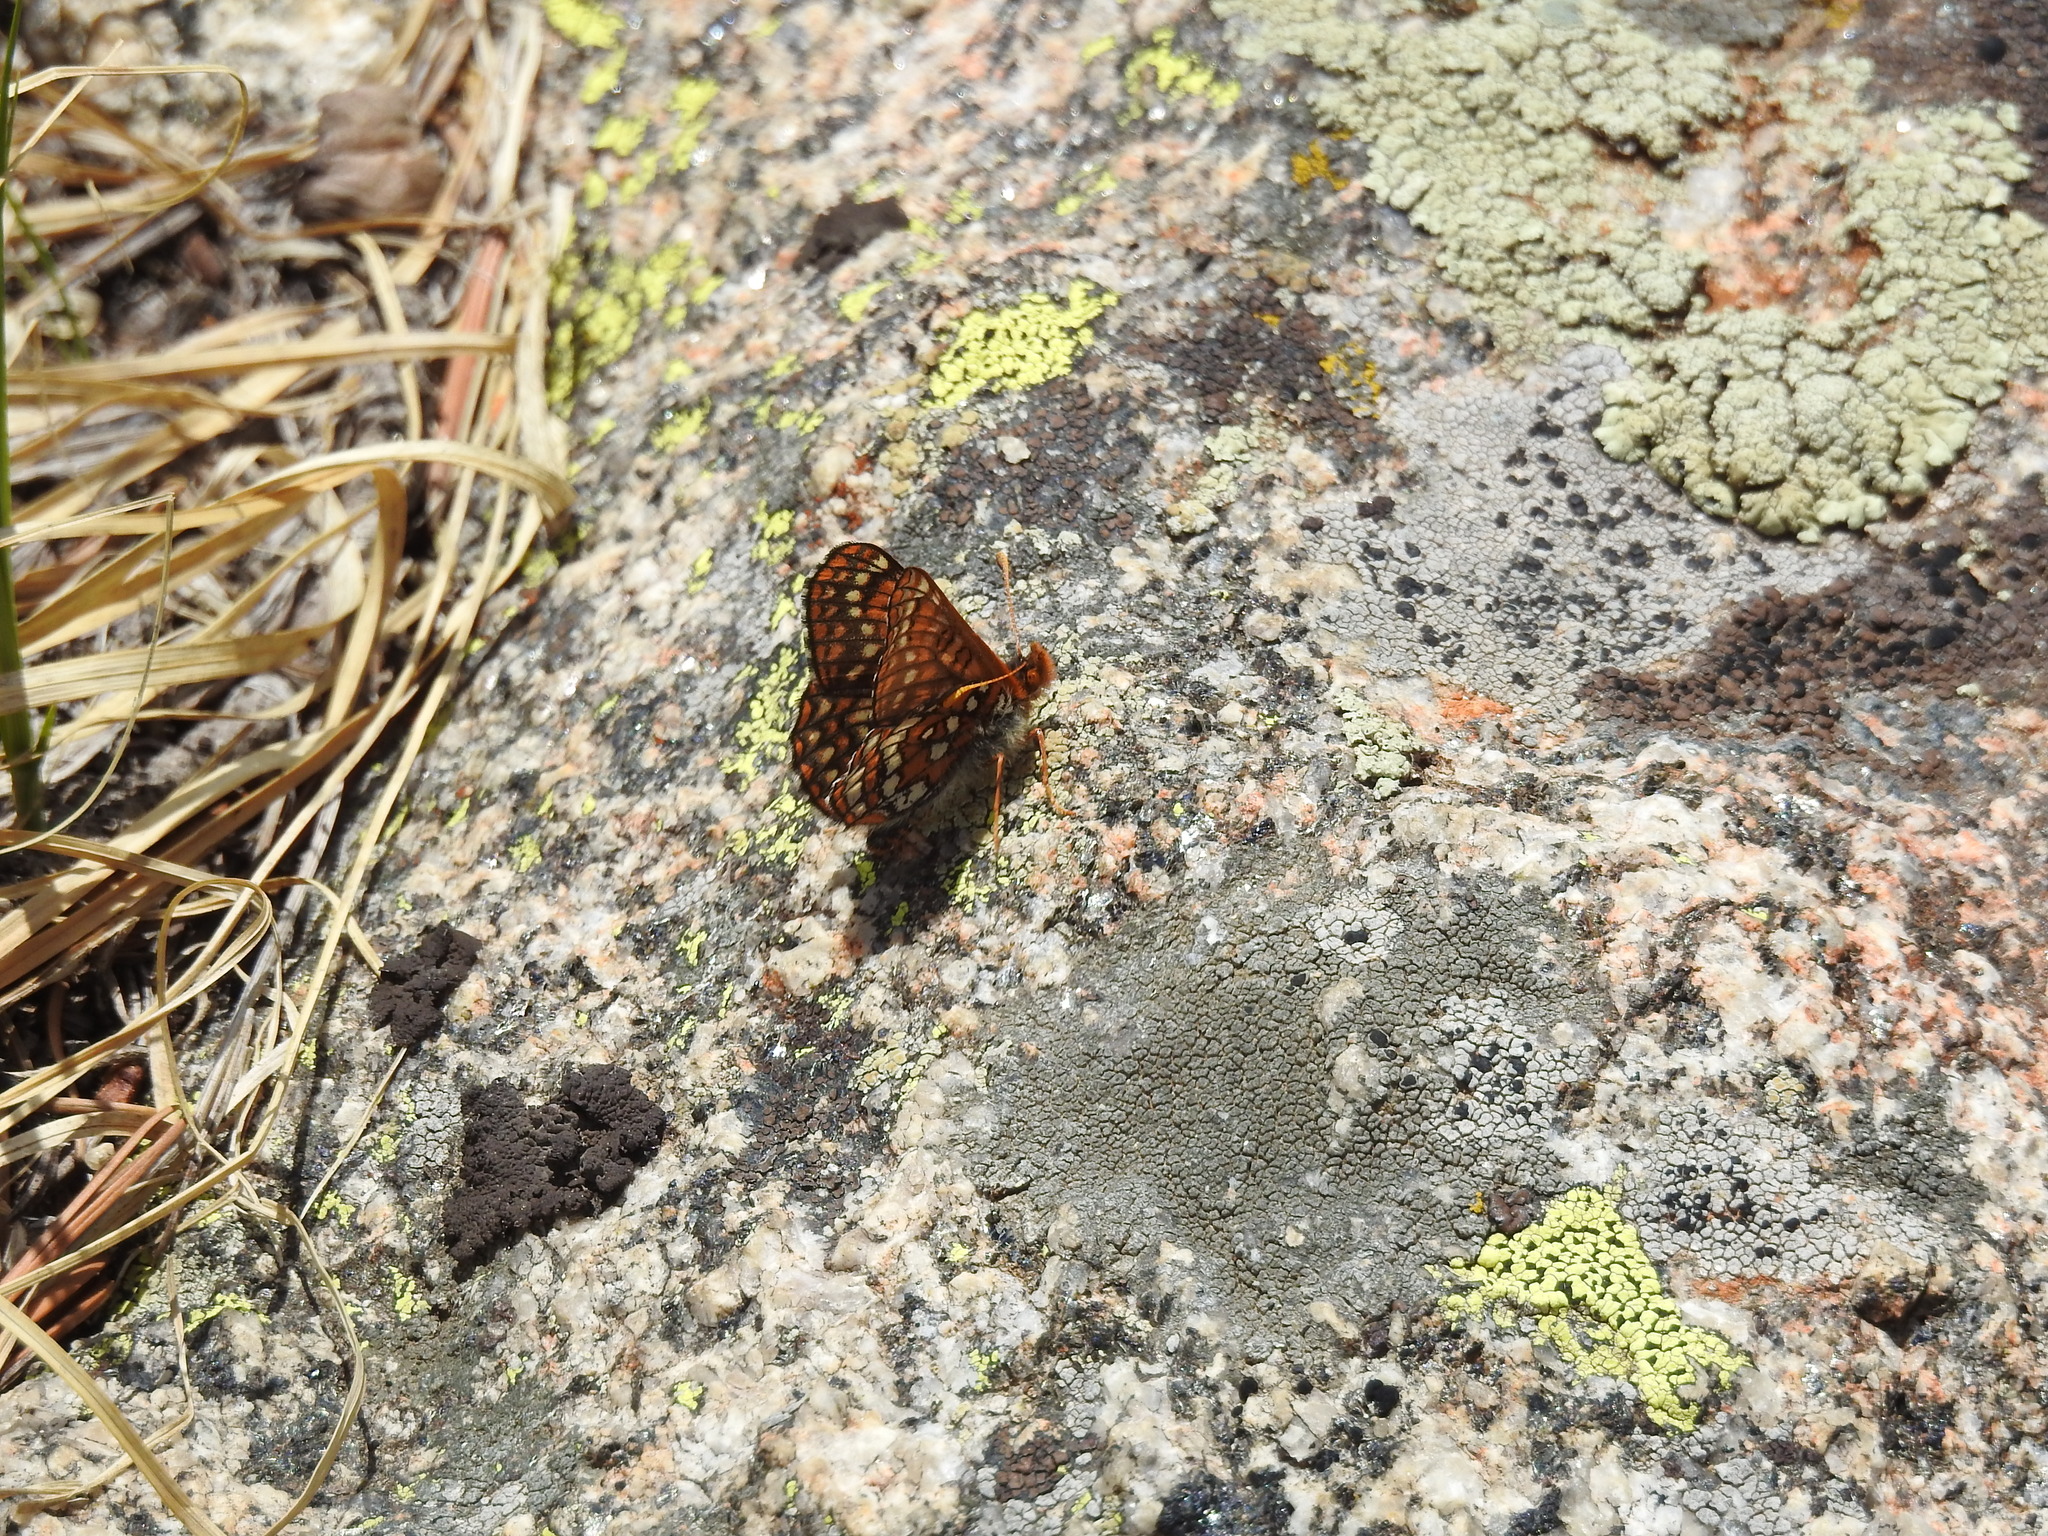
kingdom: Animalia
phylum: Arthropoda
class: Insecta
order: Lepidoptera
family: Nymphalidae
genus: Occidryas
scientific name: Occidryas anicia
